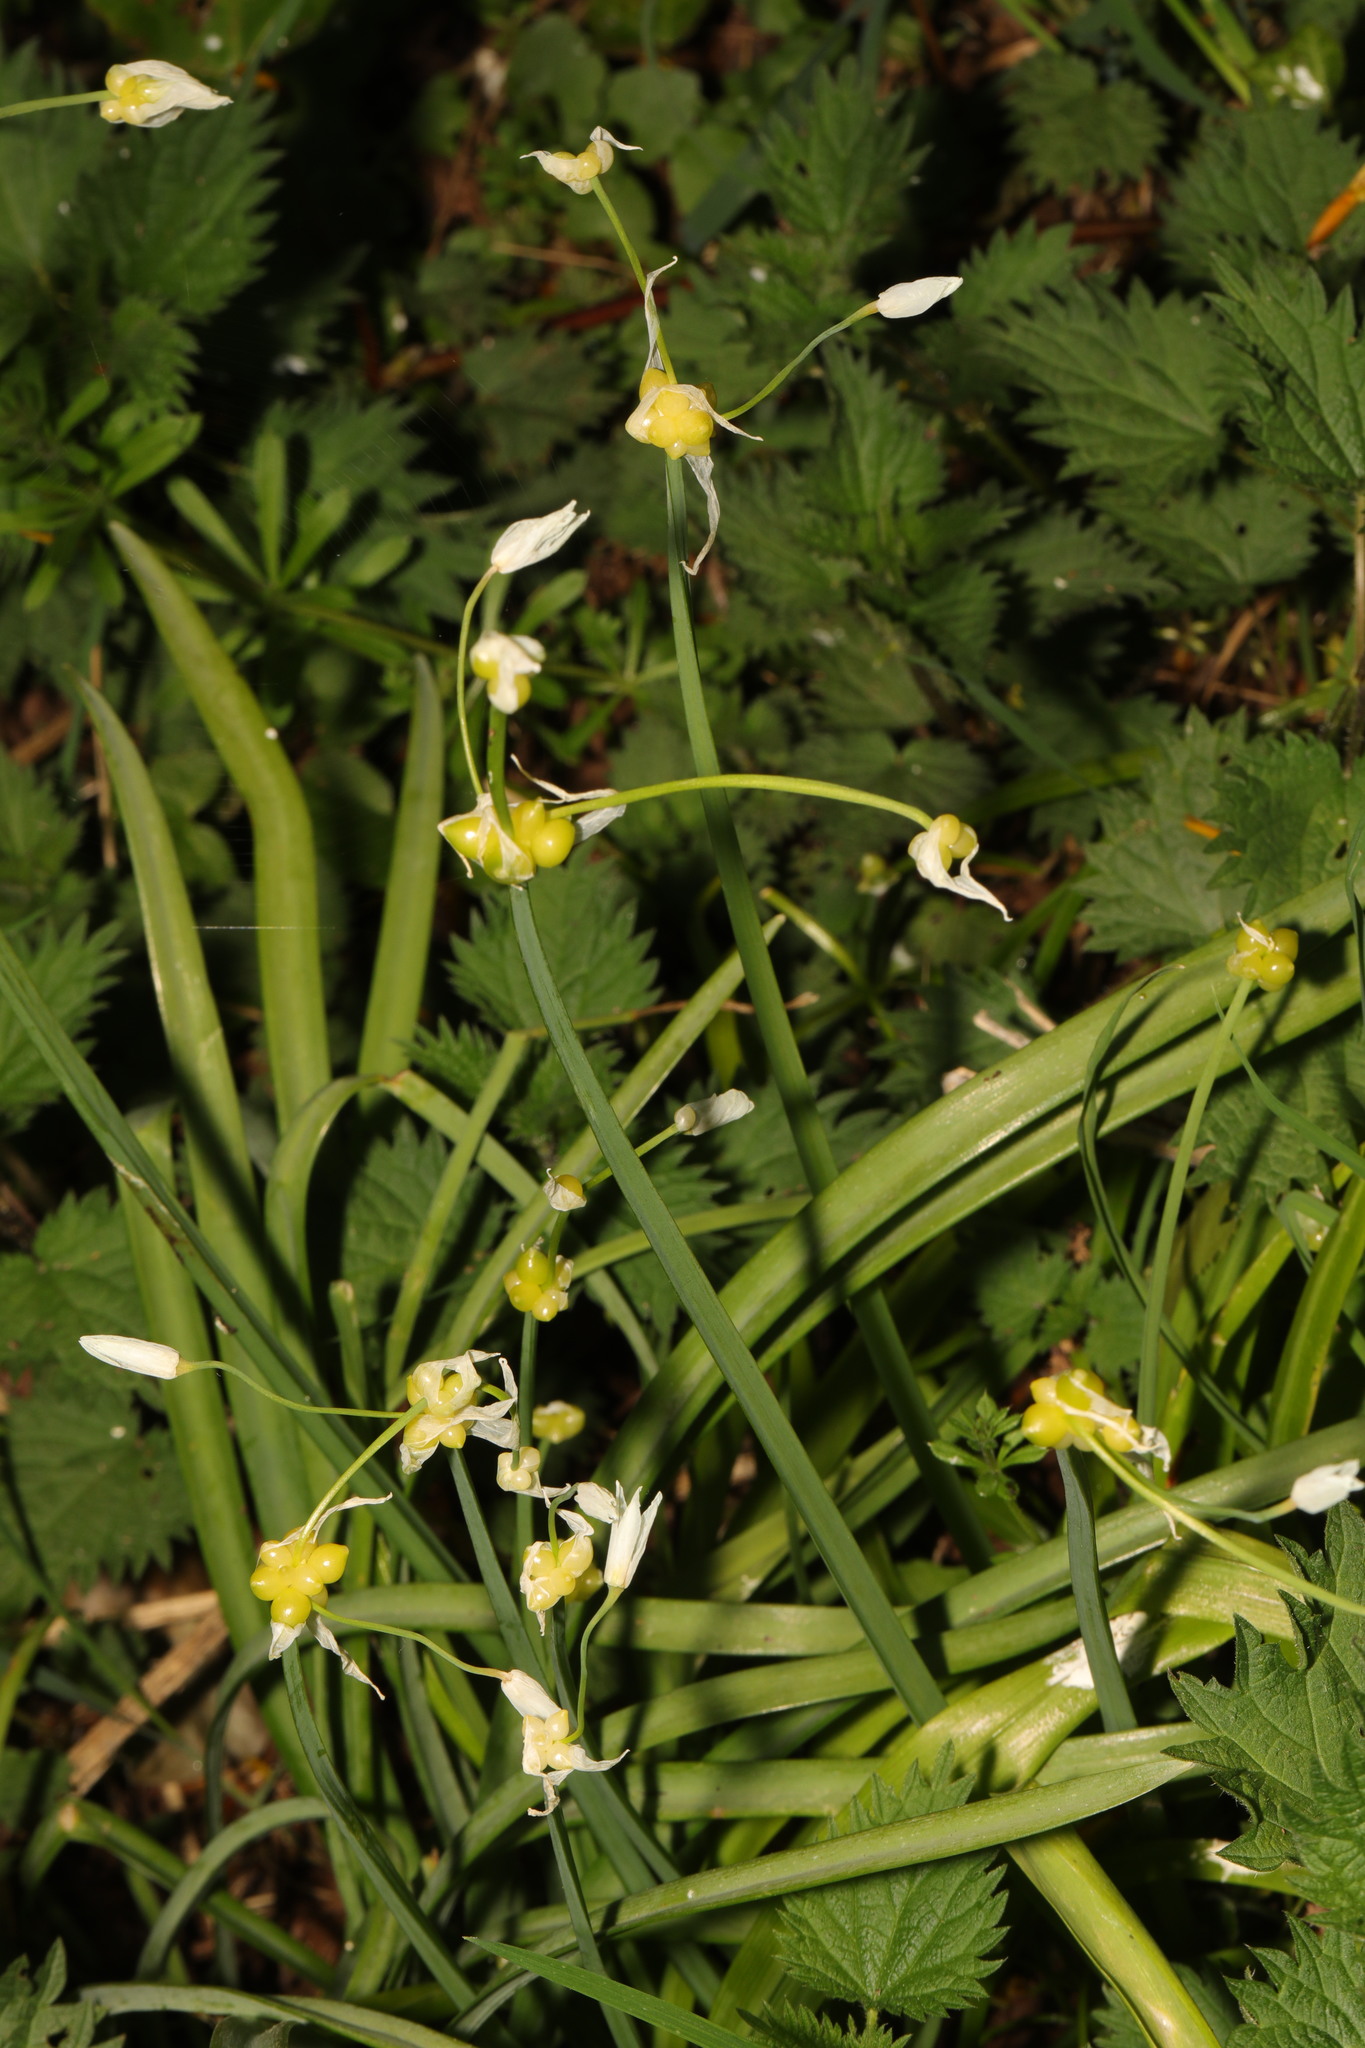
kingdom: Plantae
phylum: Tracheophyta
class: Liliopsida
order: Asparagales
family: Amaryllidaceae
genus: Allium
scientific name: Allium paradoxum
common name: Few-flowered garlic
